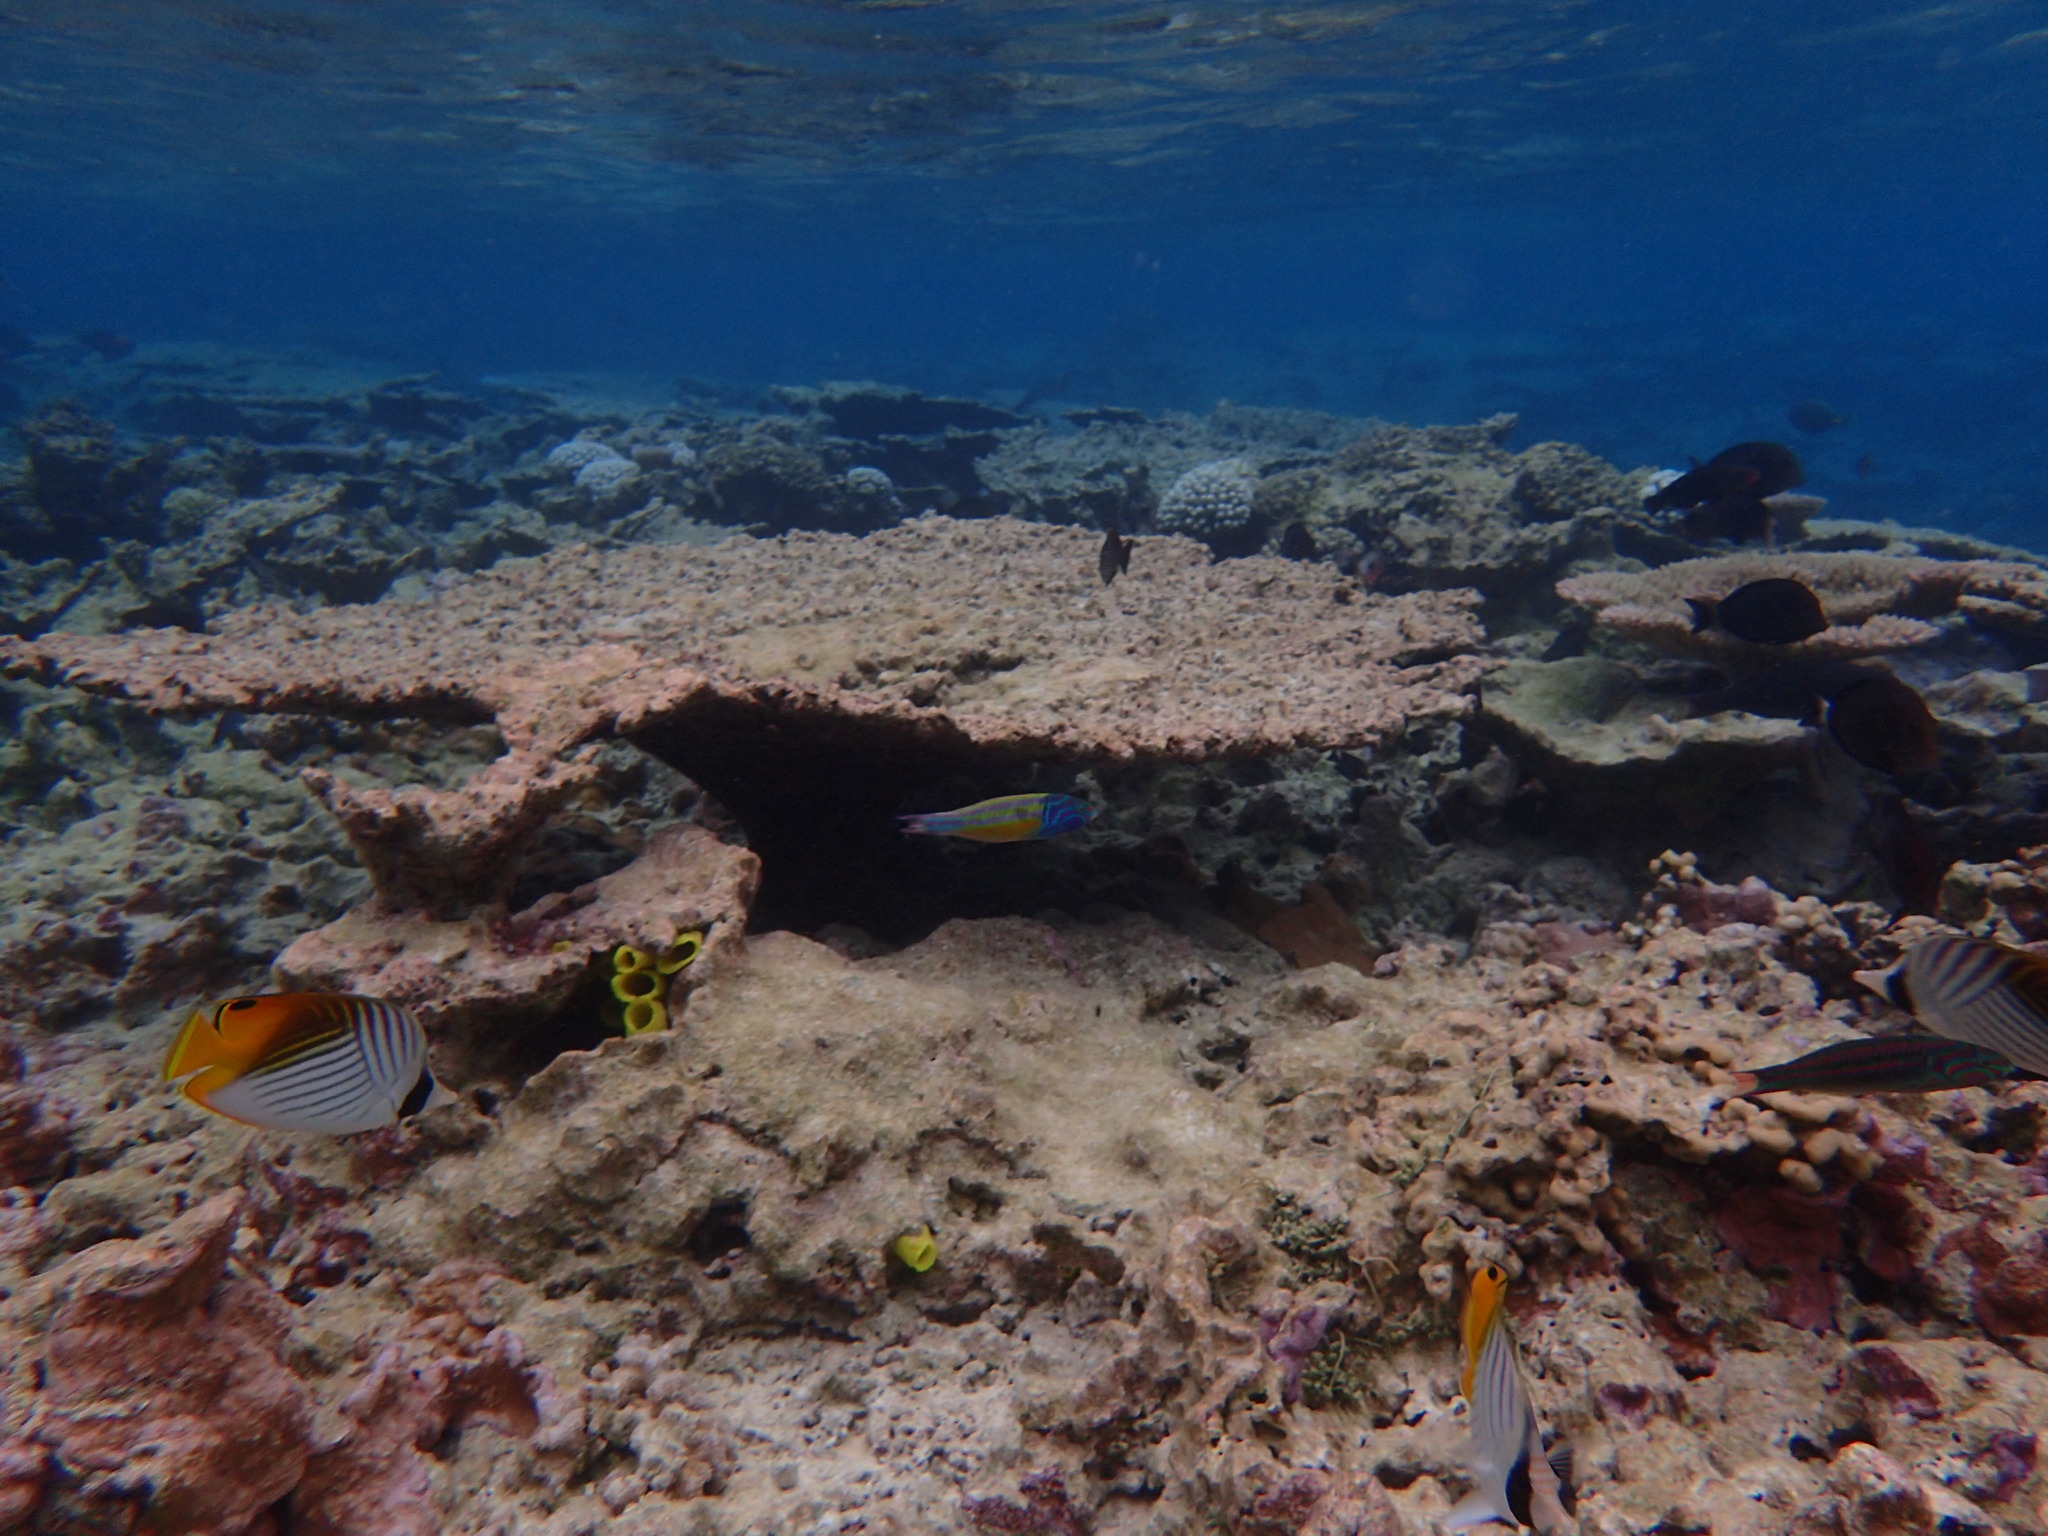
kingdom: Animalia
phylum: Chordata
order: Perciformes
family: Labridae
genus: Thalassoma
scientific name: Thalassoma quinquevittatum
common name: Five striped surge wrasse
